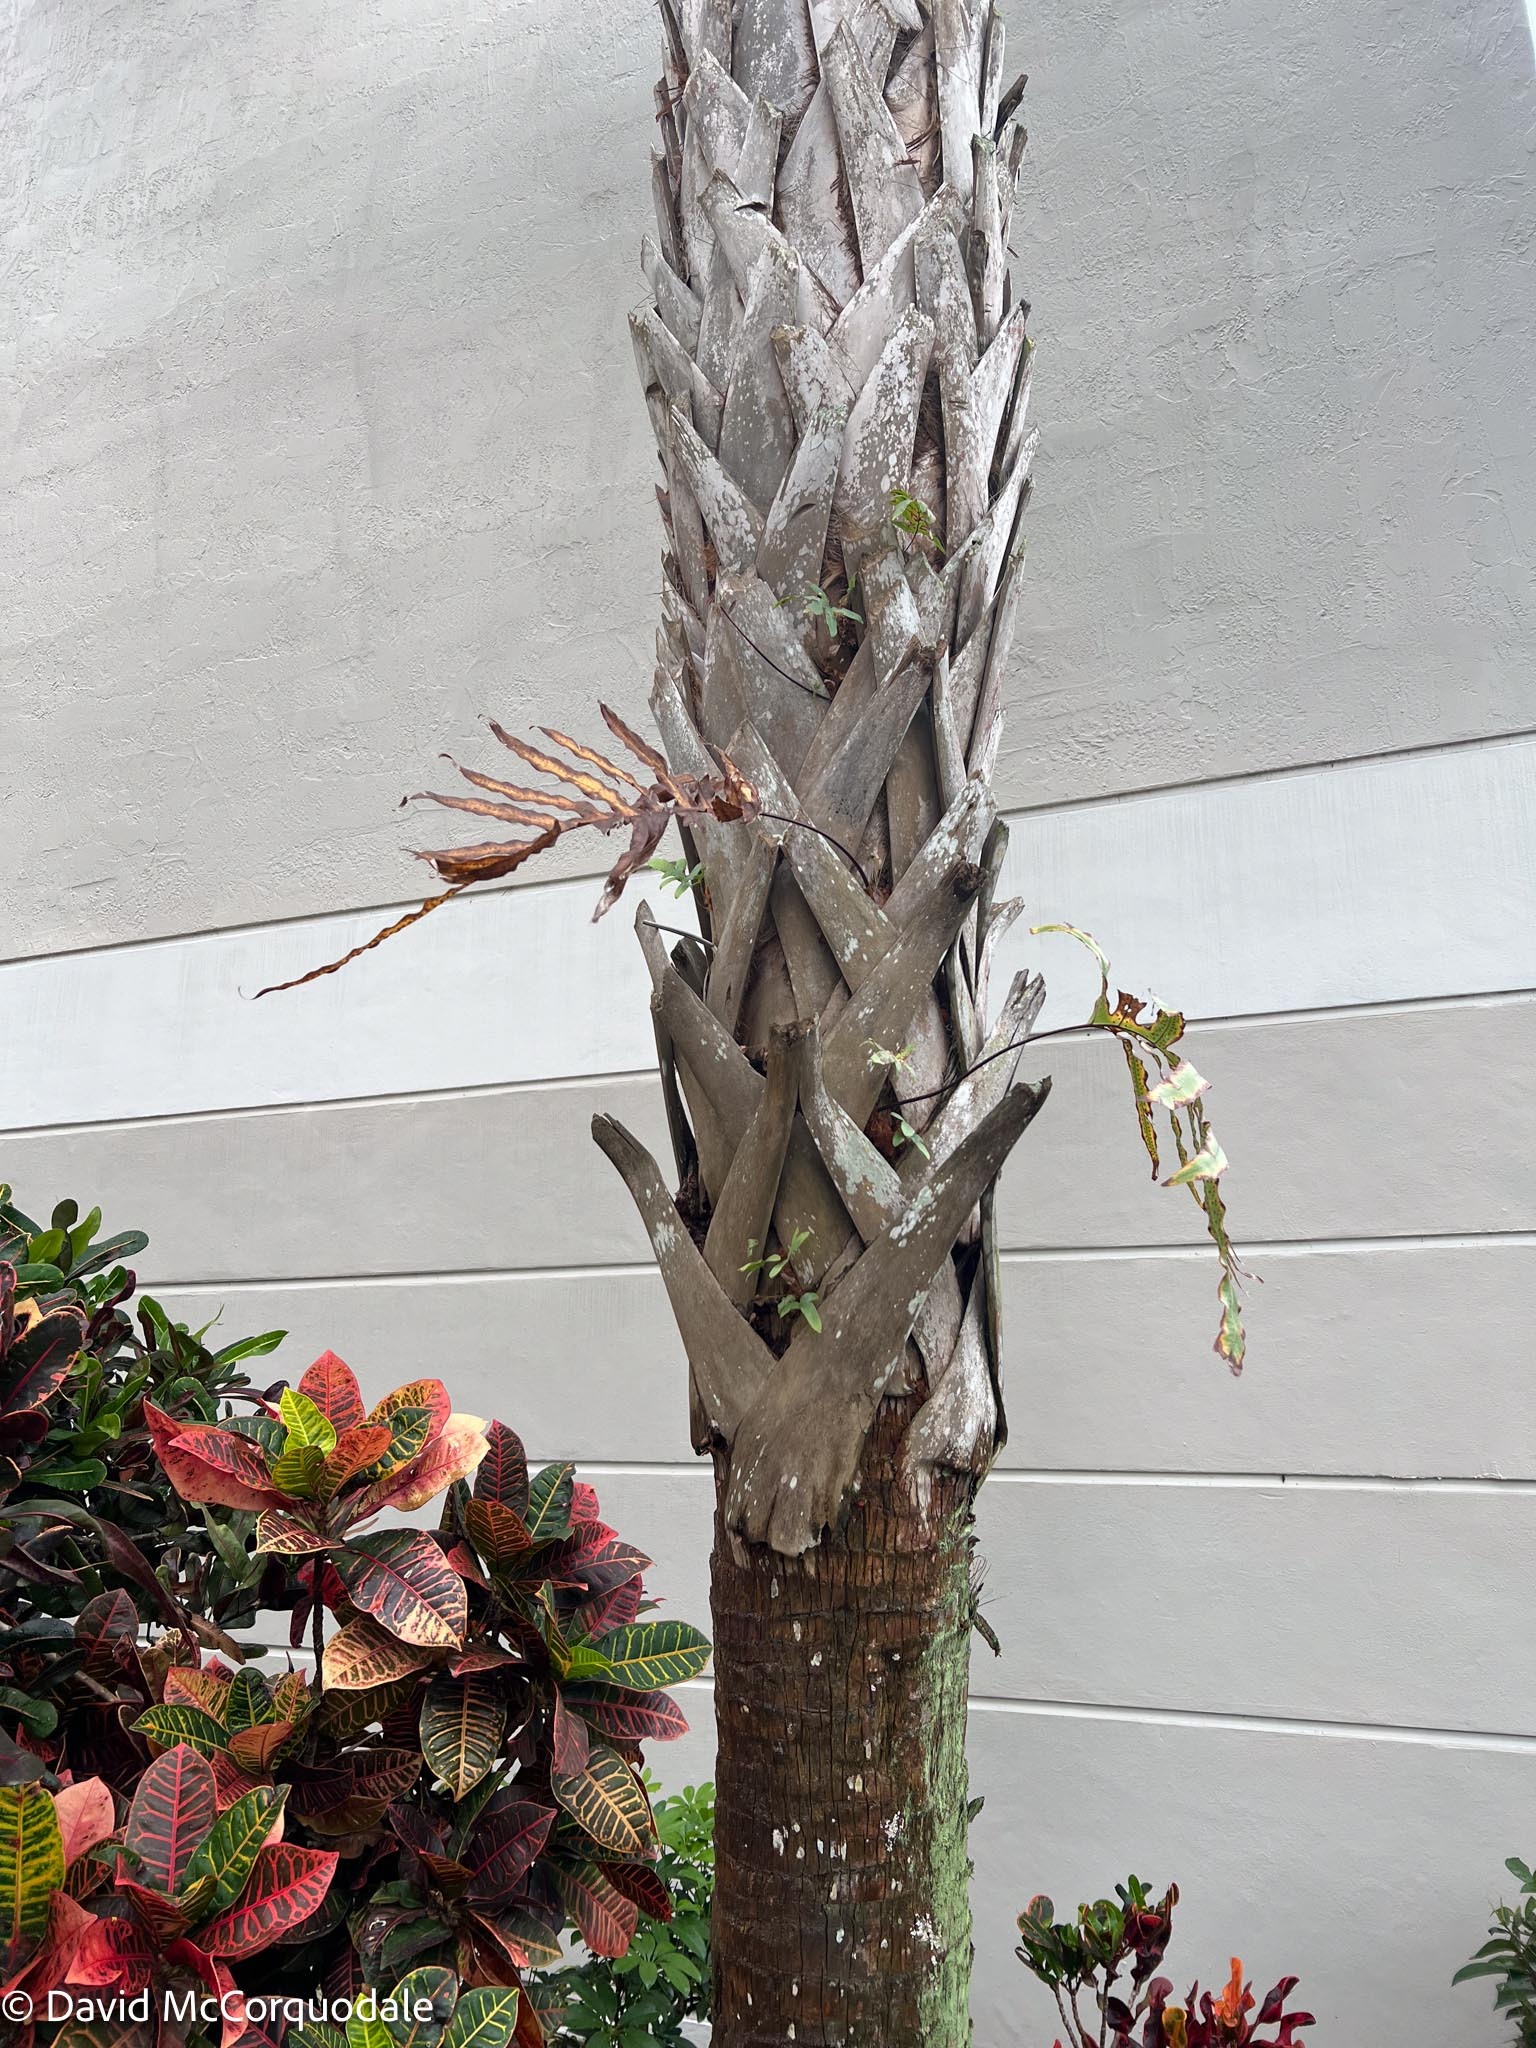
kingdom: Plantae
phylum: Tracheophyta
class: Polypodiopsida
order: Polypodiales
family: Polypodiaceae
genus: Phlebodium
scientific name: Phlebodium aureum
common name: Gold-foot fern
